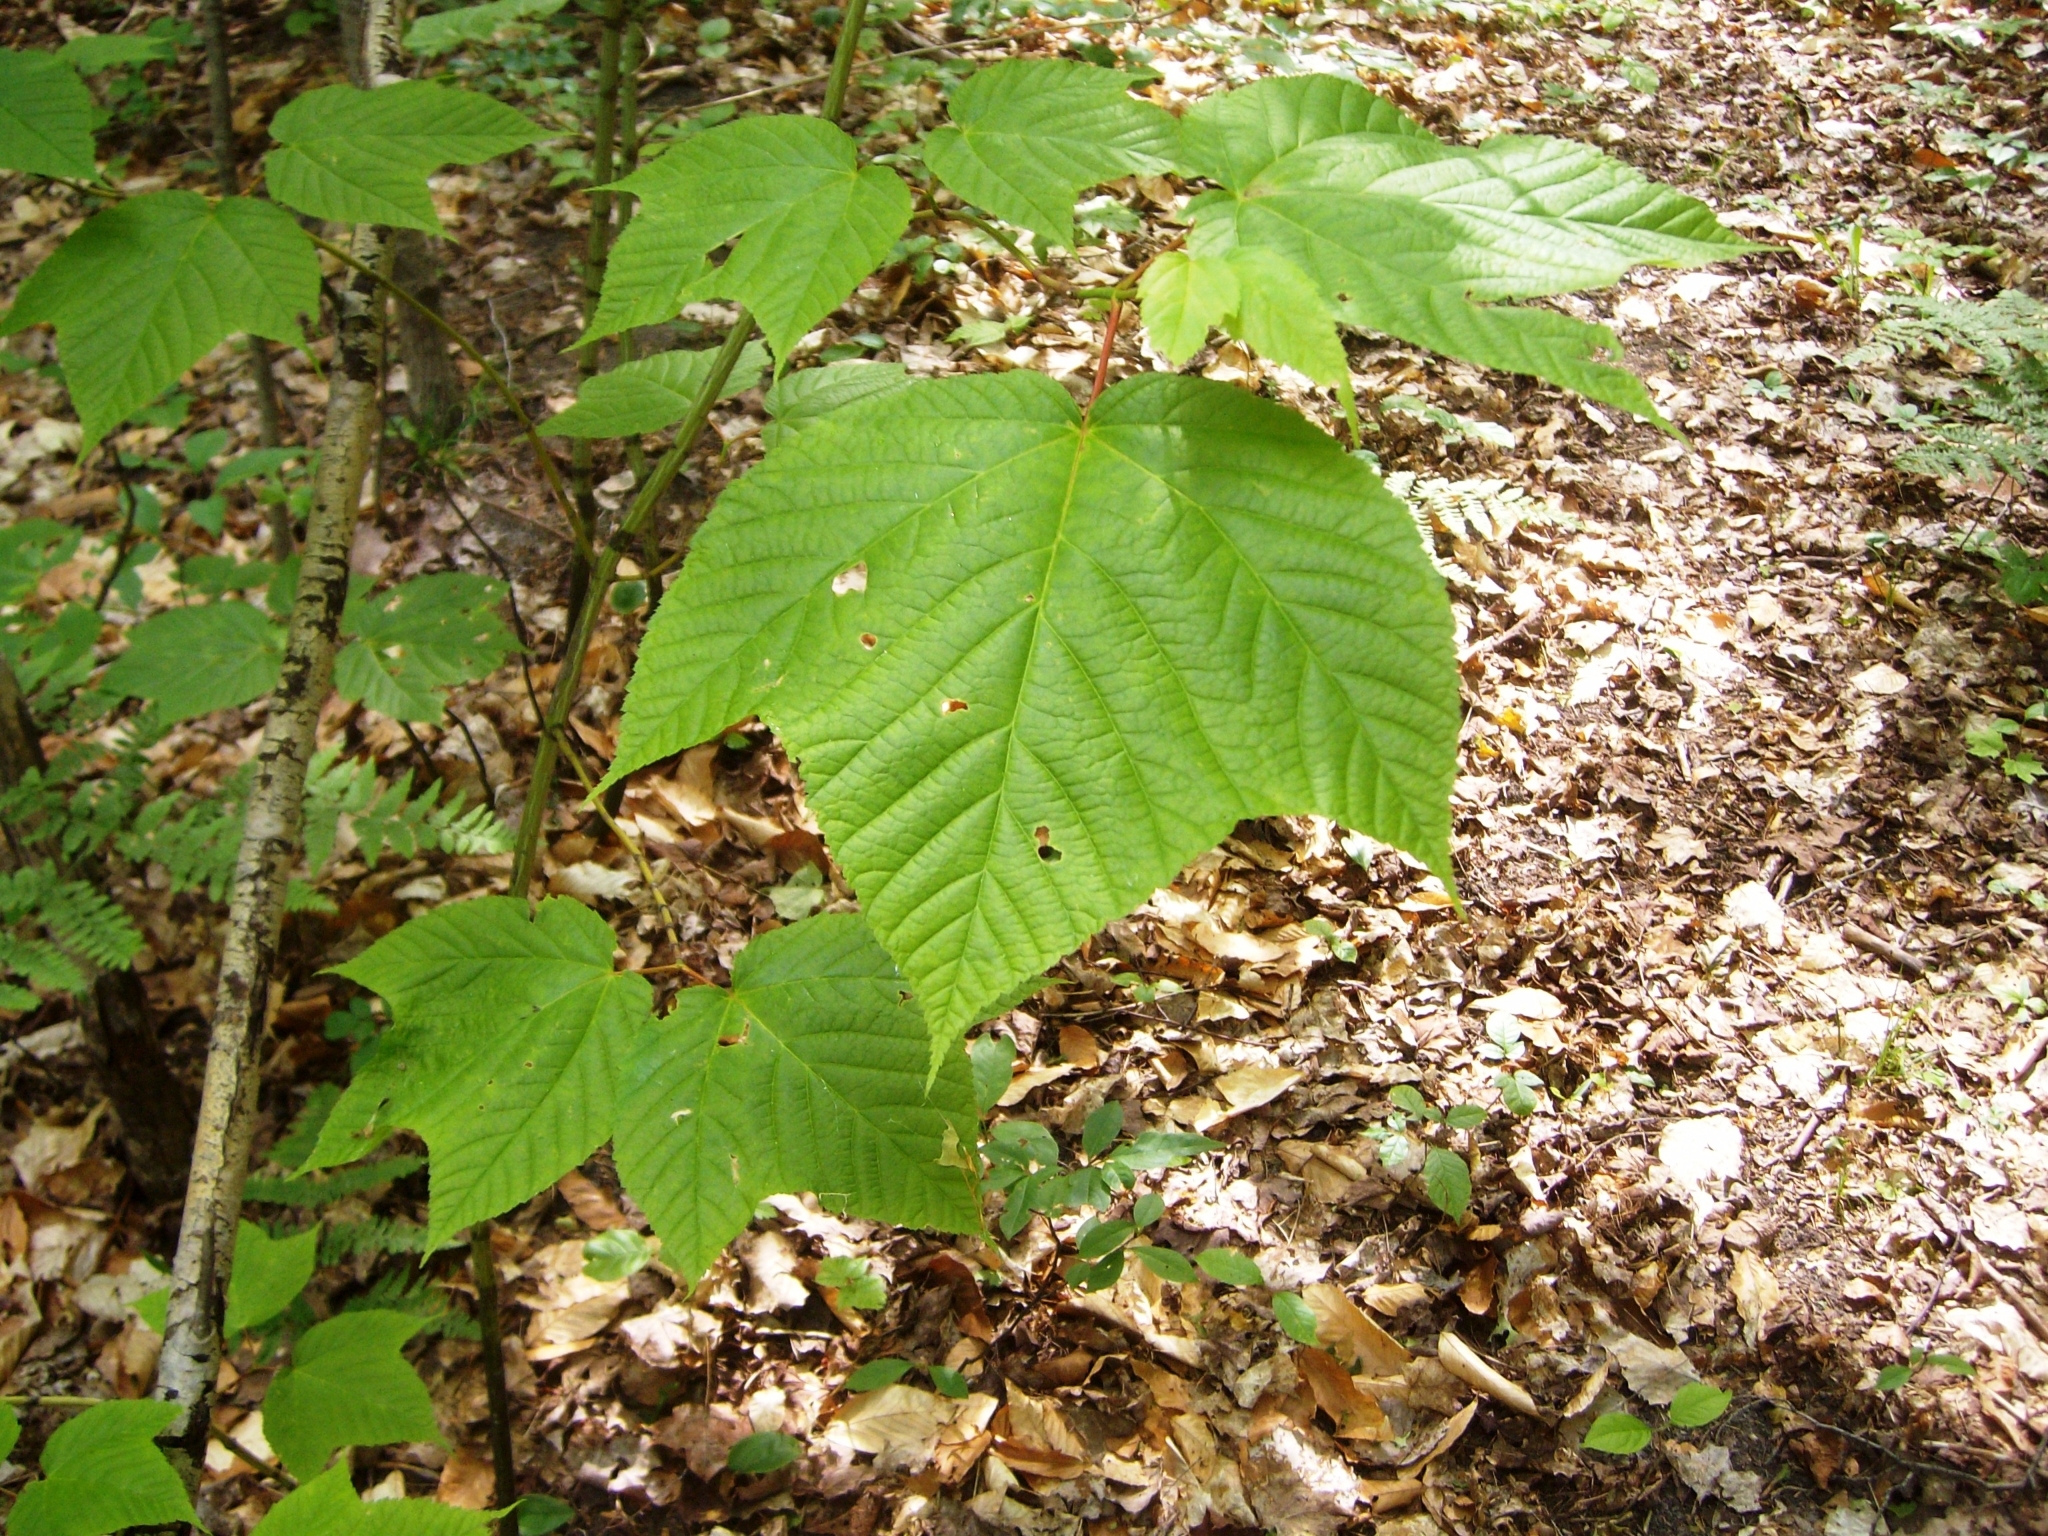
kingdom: Plantae
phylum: Tracheophyta
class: Magnoliopsida
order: Sapindales
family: Sapindaceae
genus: Acer
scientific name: Acer pensylvanicum
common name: Moosewood
